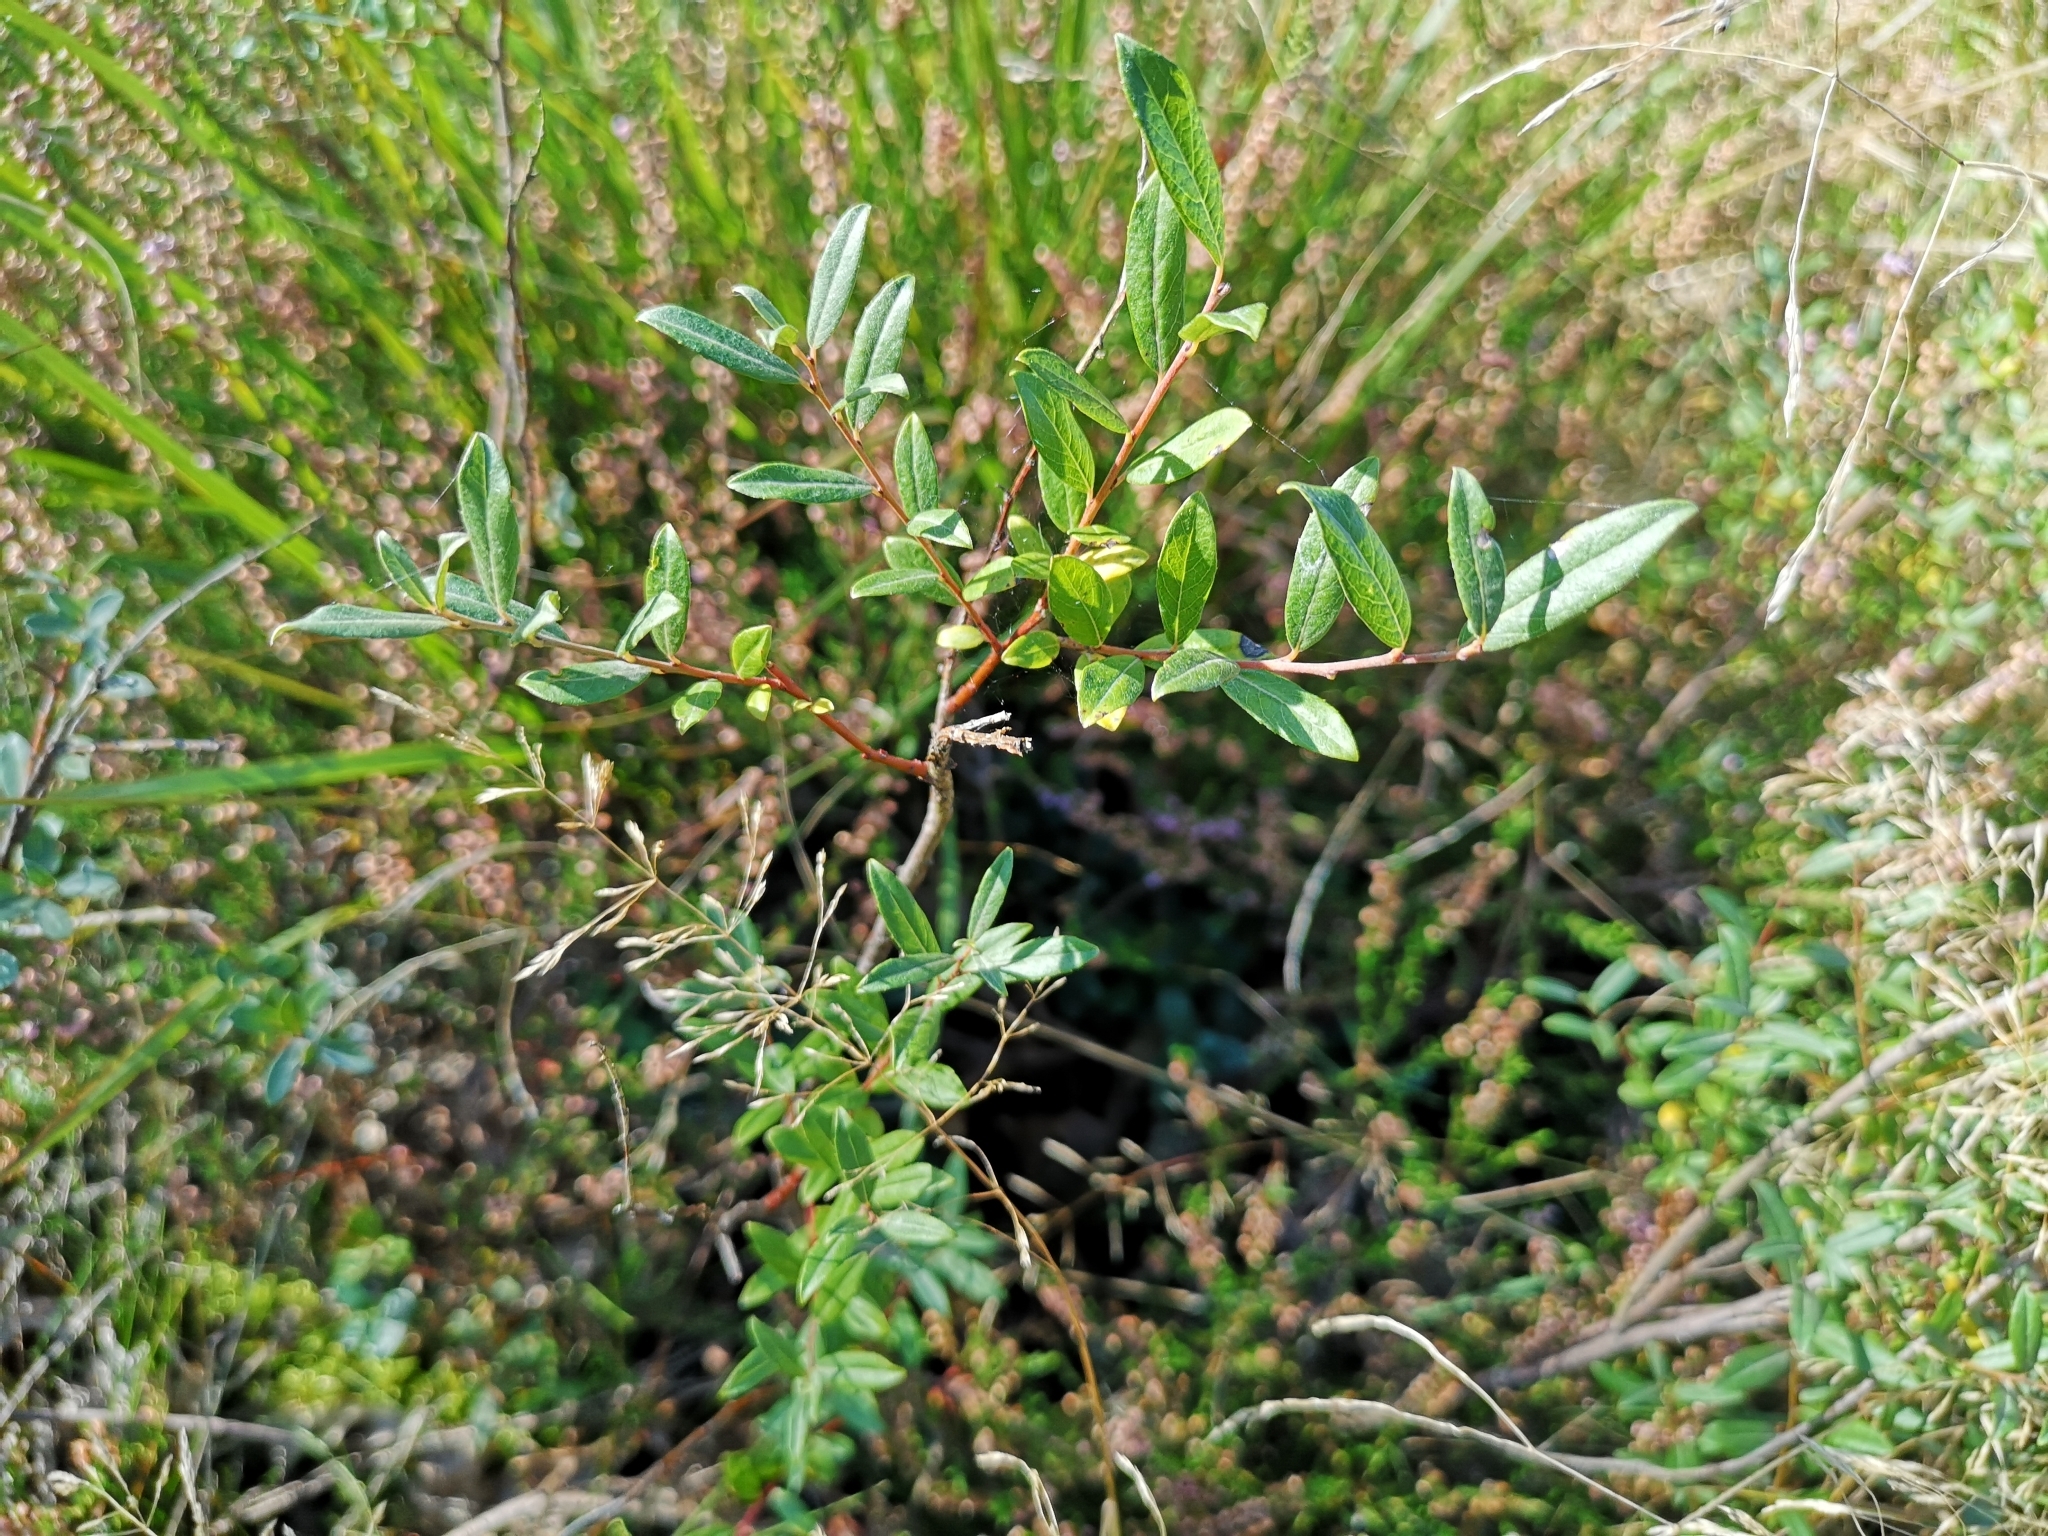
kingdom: Plantae
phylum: Tracheophyta
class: Magnoliopsida
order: Malpighiales
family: Salicaceae
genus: Salix
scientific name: Salix repens
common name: Creeping willow
